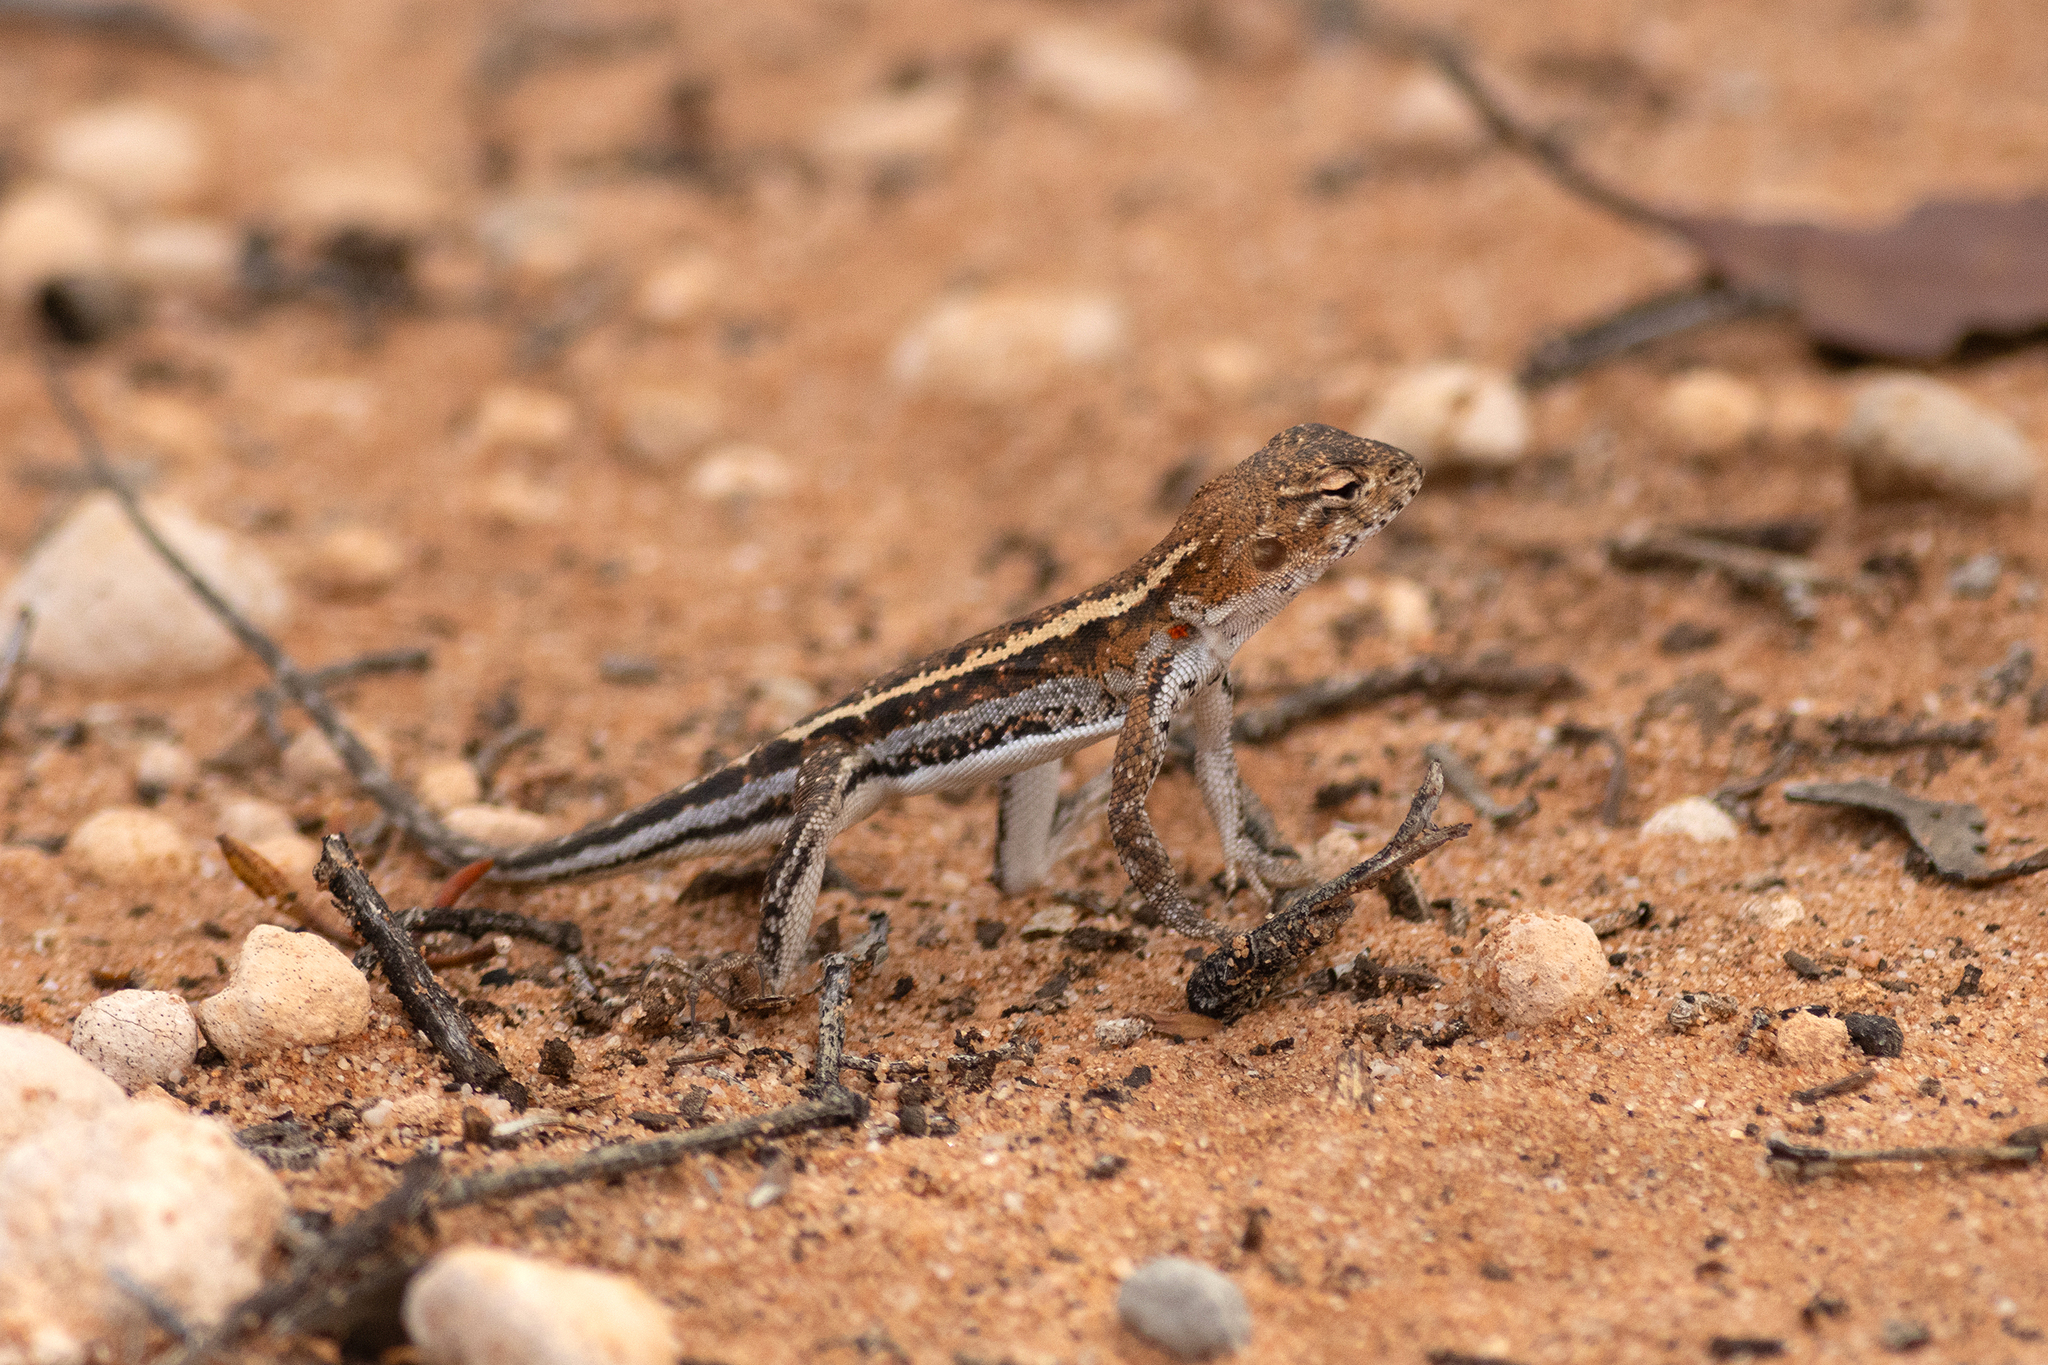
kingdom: Animalia
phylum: Chordata
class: Squamata
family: Agamidae
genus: Ctenophorus
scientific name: Ctenophorus spinodomus
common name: Eastern mallee dragon
